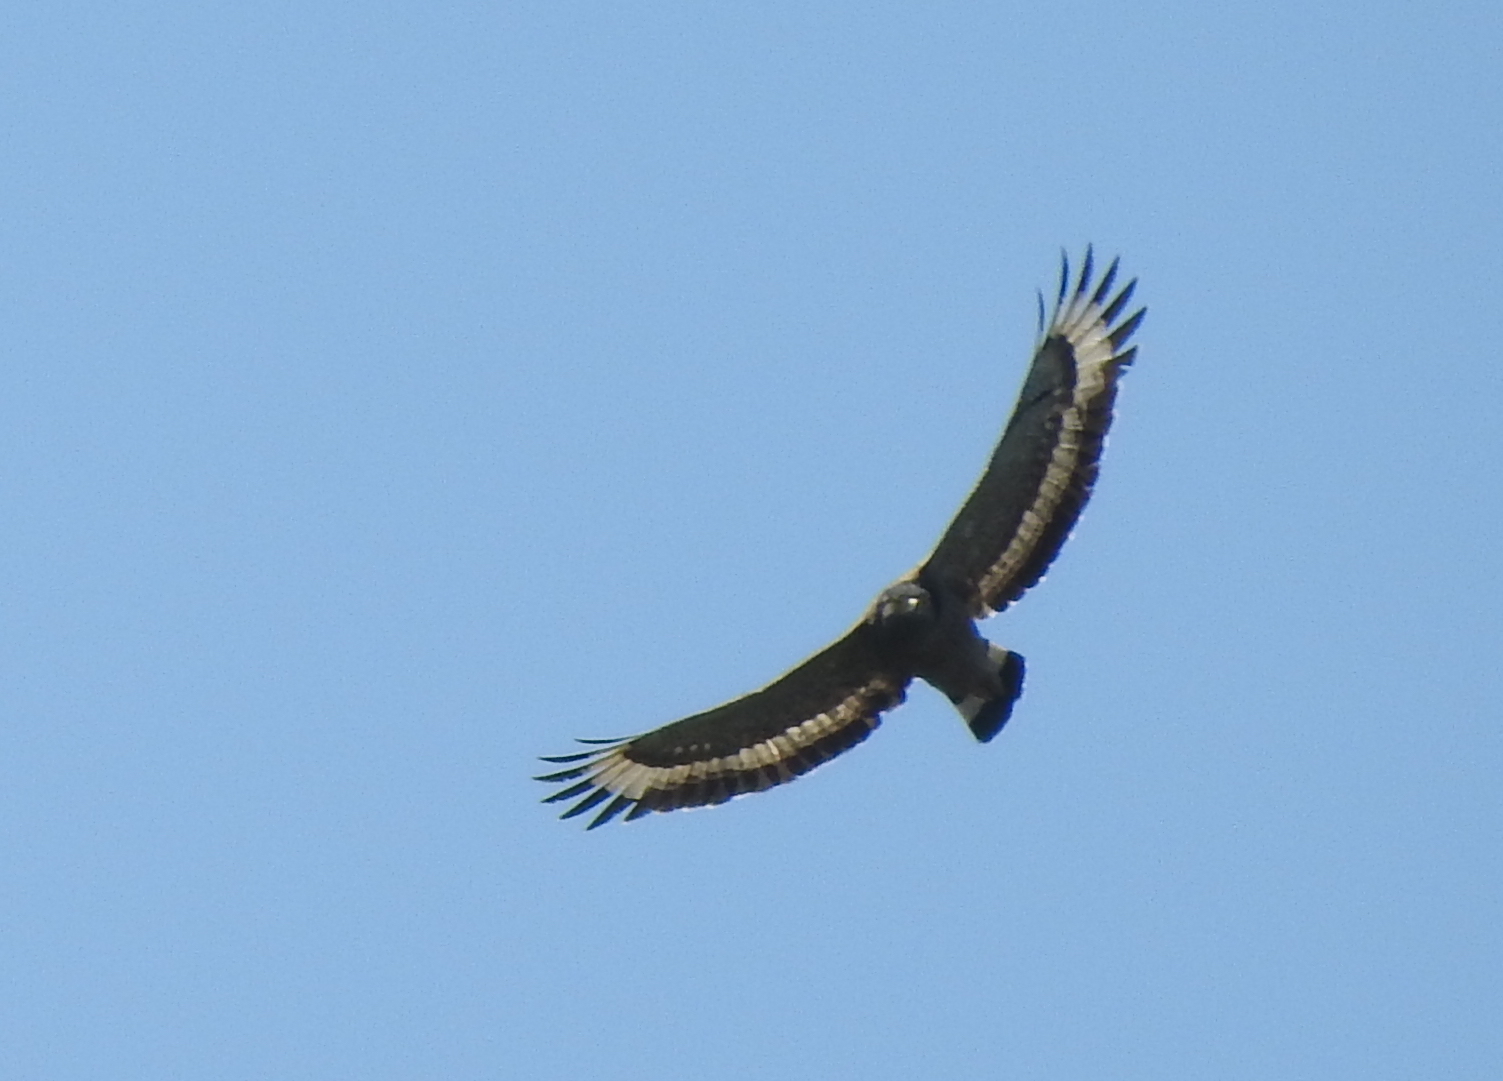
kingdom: Animalia
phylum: Chordata
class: Aves
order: Accipitriformes
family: Accipitridae
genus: Spilornis
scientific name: Spilornis cheela
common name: Crested serpent eagle
